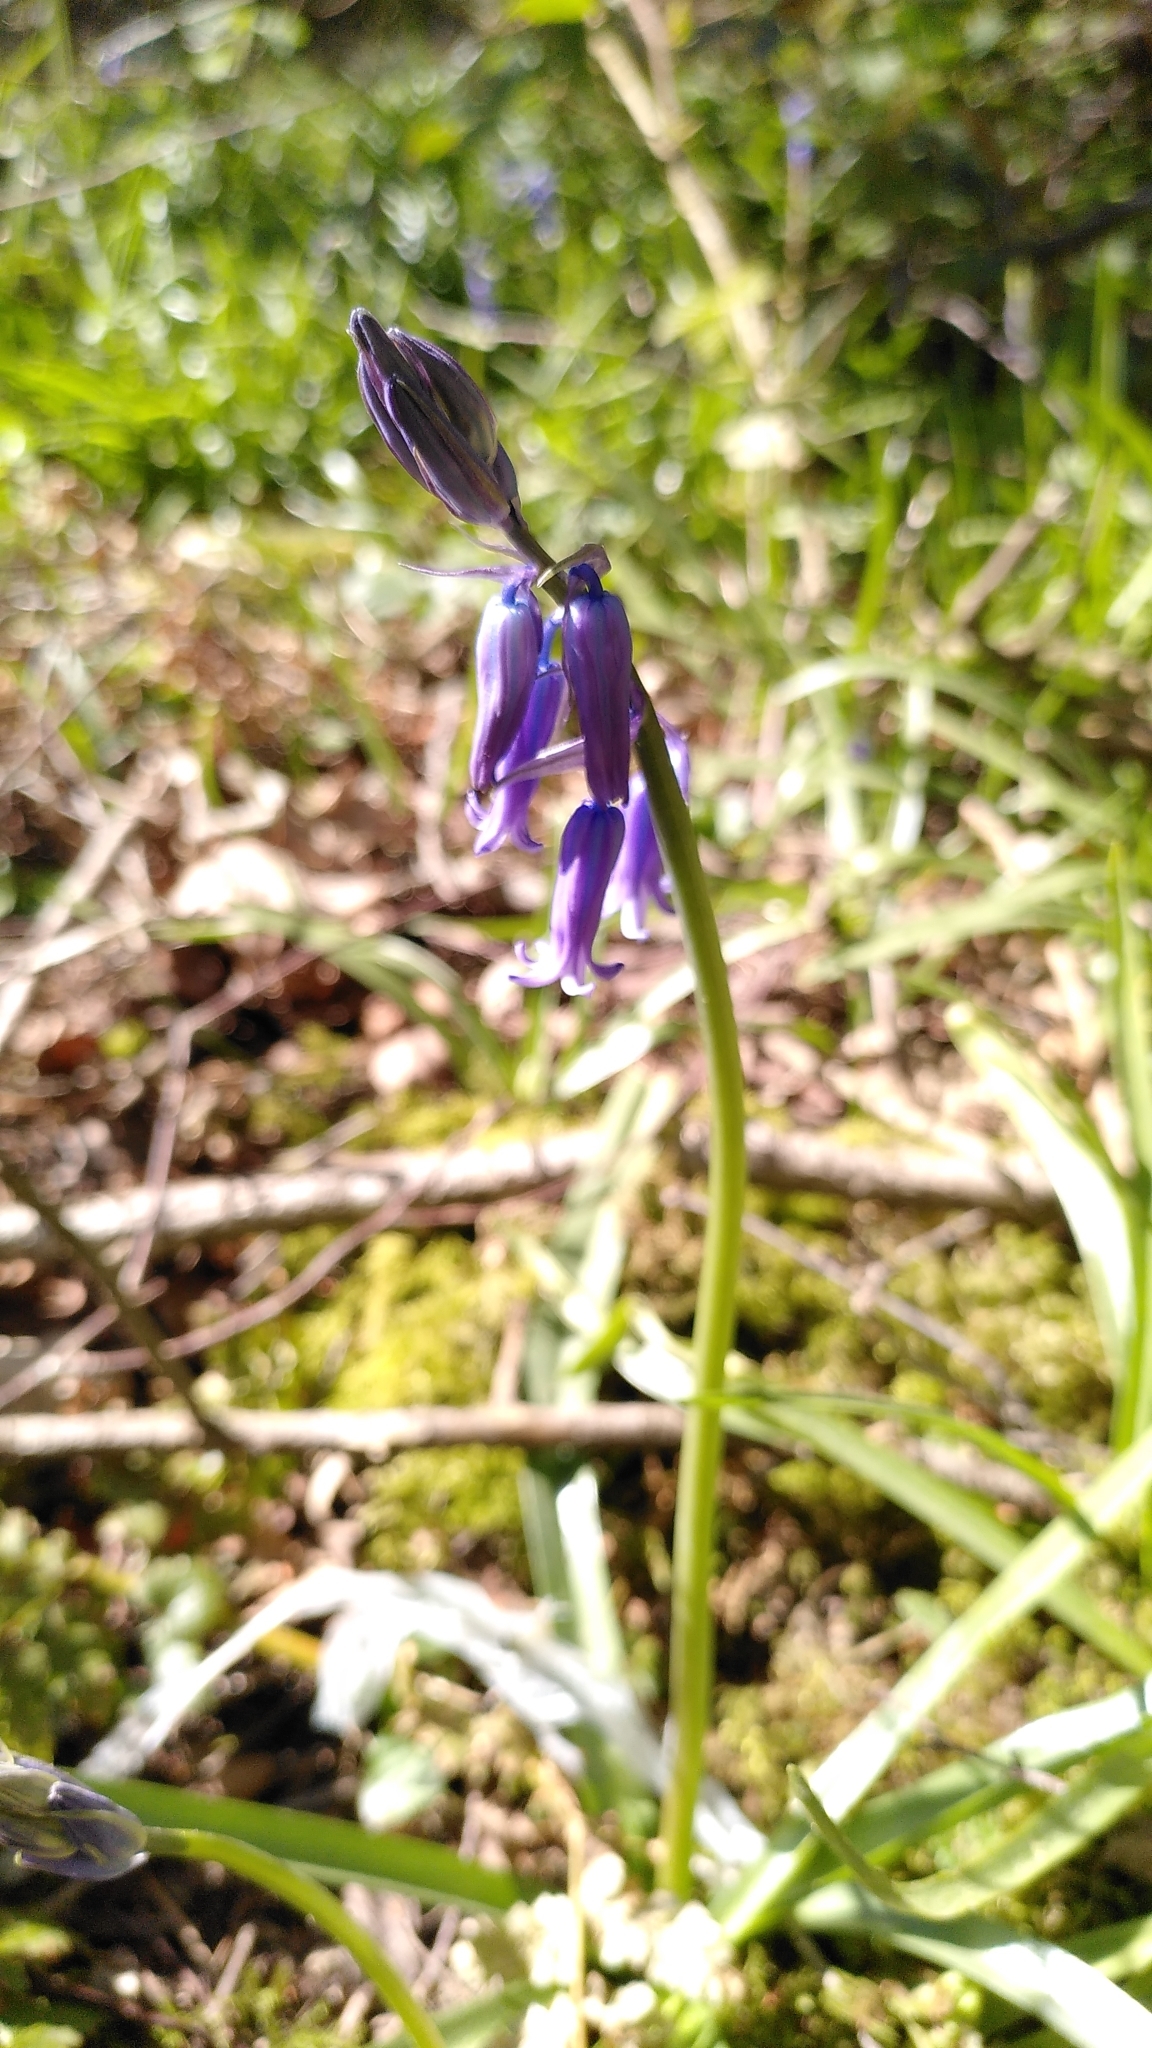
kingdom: Plantae
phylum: Tracheophyta
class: Liliopsida
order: Asparagales
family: Asparagaceae
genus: Hyacinthoides
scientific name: Hyacinthoides non-scripta
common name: Bluebell
